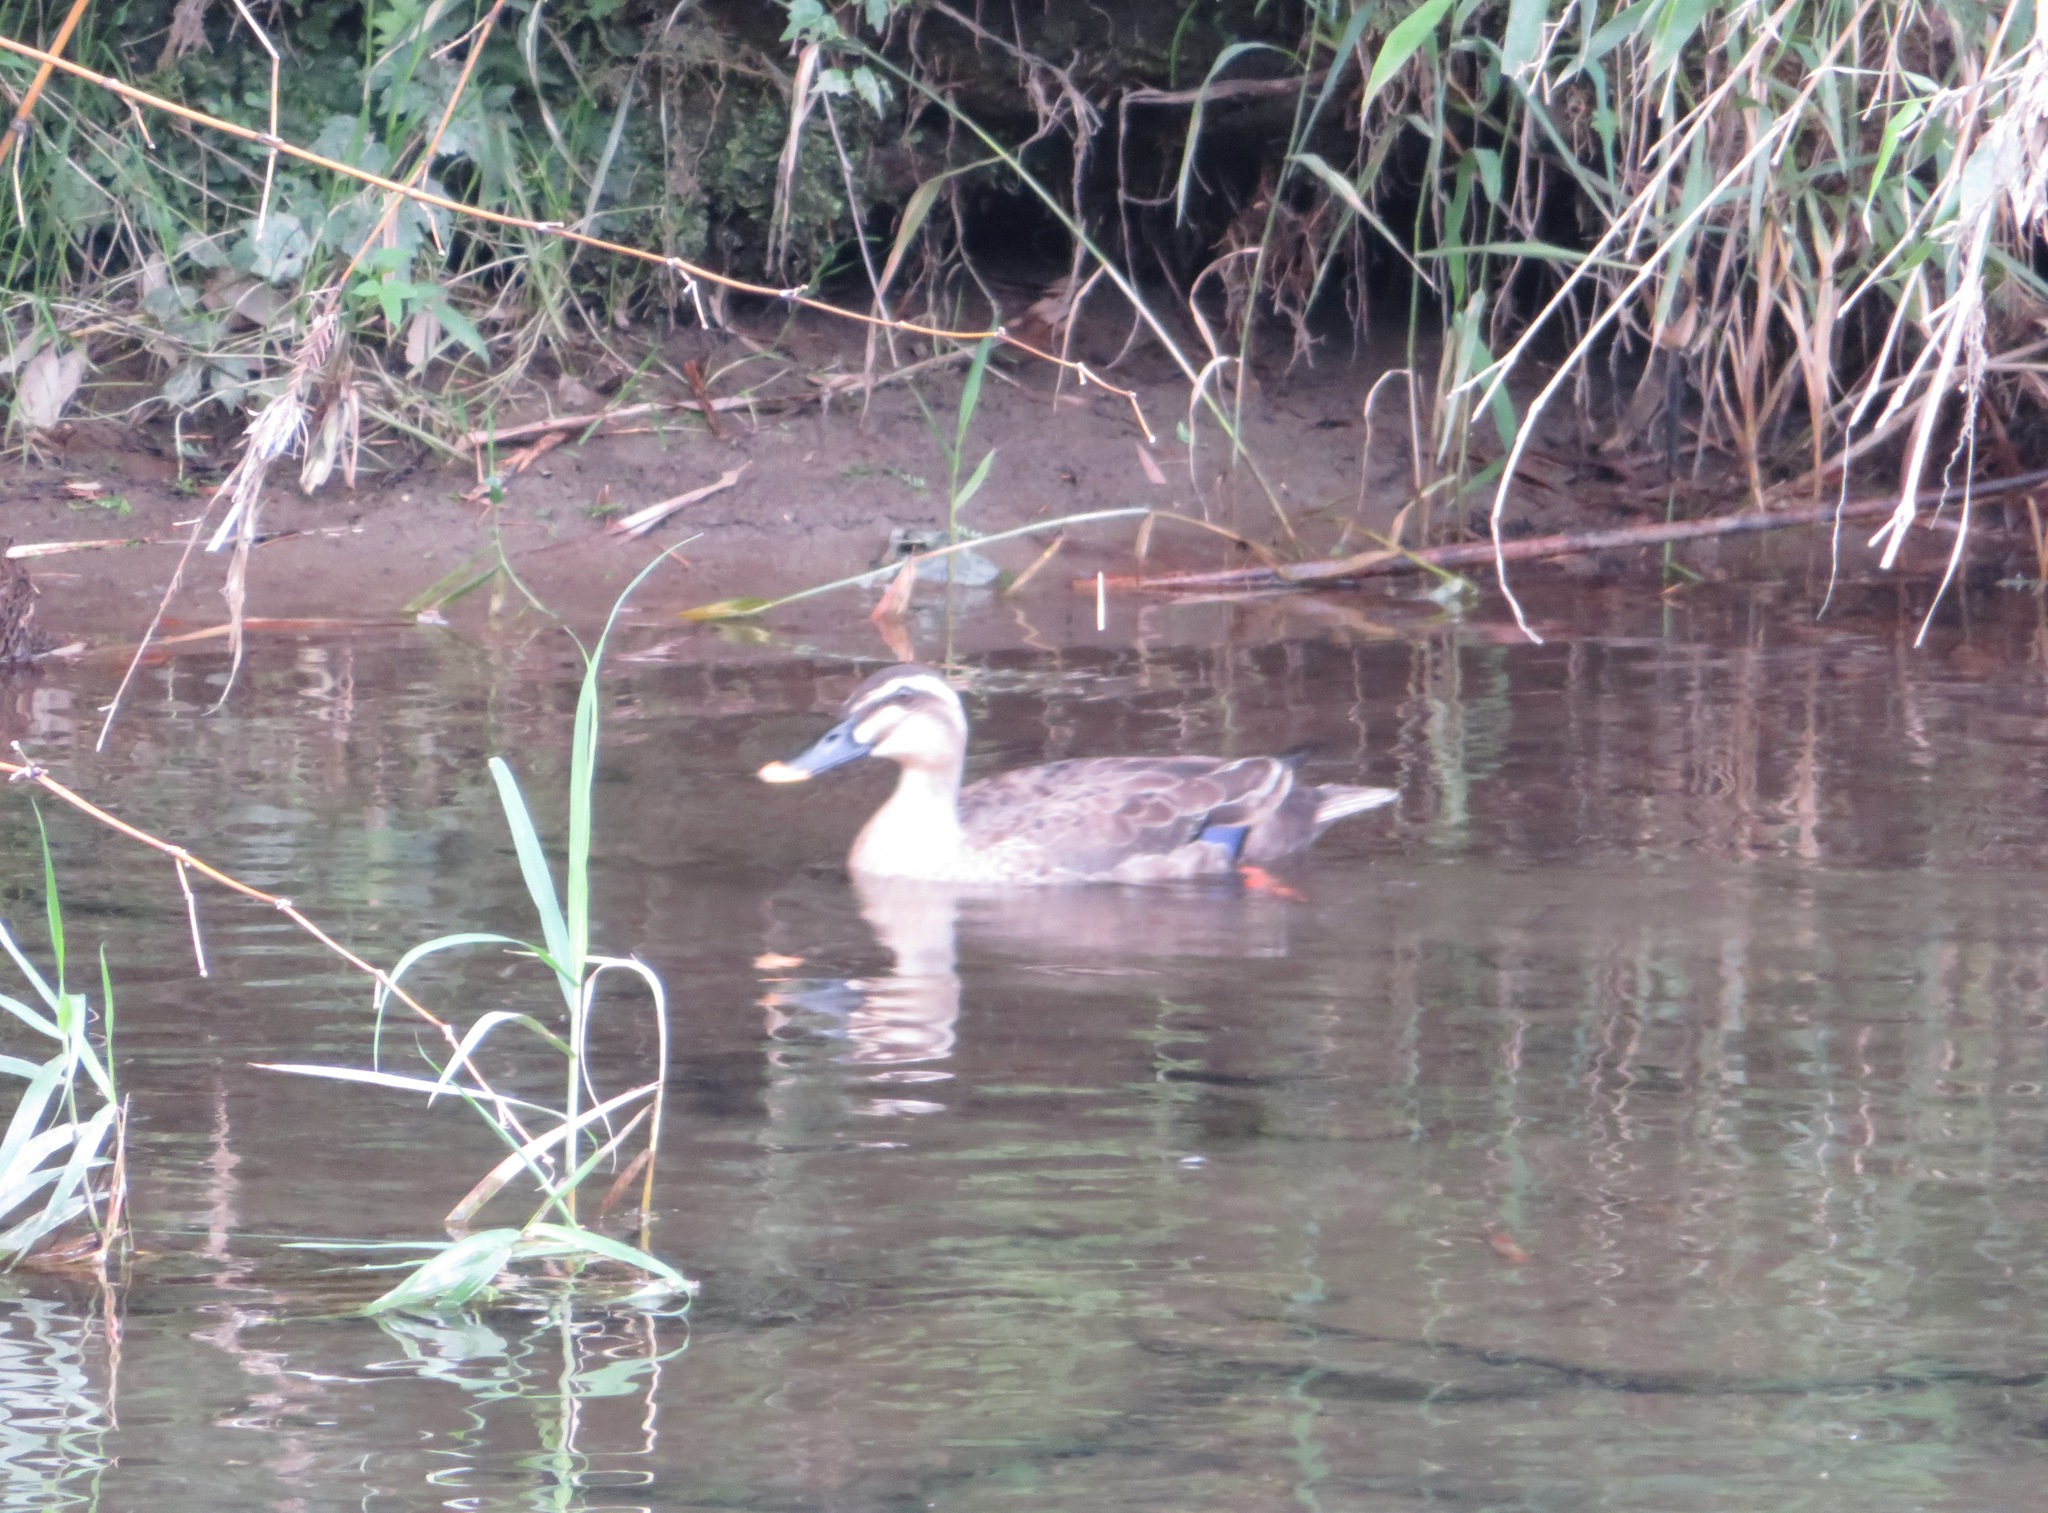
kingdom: Animalia
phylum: Chordata
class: Aves
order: Anseriformes
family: Anatidae
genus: Anas
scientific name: Anas zonorhyncha
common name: Eastern spot-billed duck
